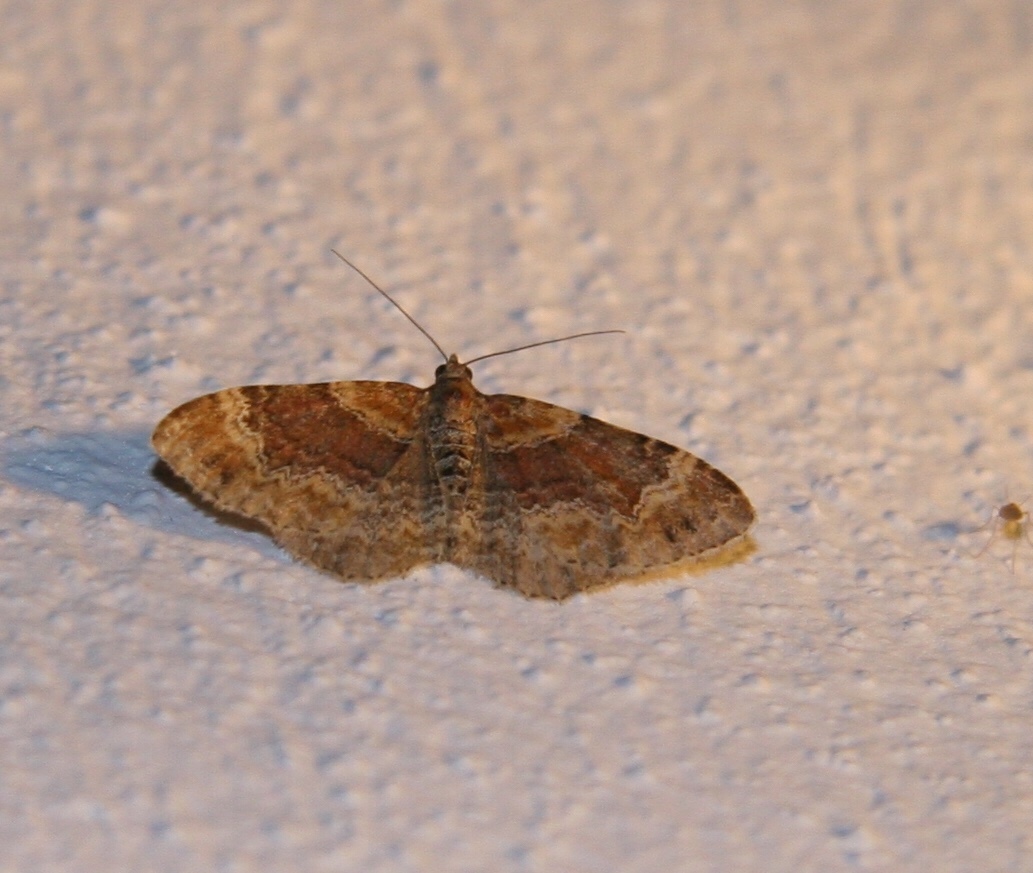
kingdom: Animalia
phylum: Arthropoda
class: Insecta
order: Lepidoptera
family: Geometridae
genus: Xanthorhoe
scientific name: Xanthorhoe spadicearia
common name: Red twin-spot carpet
